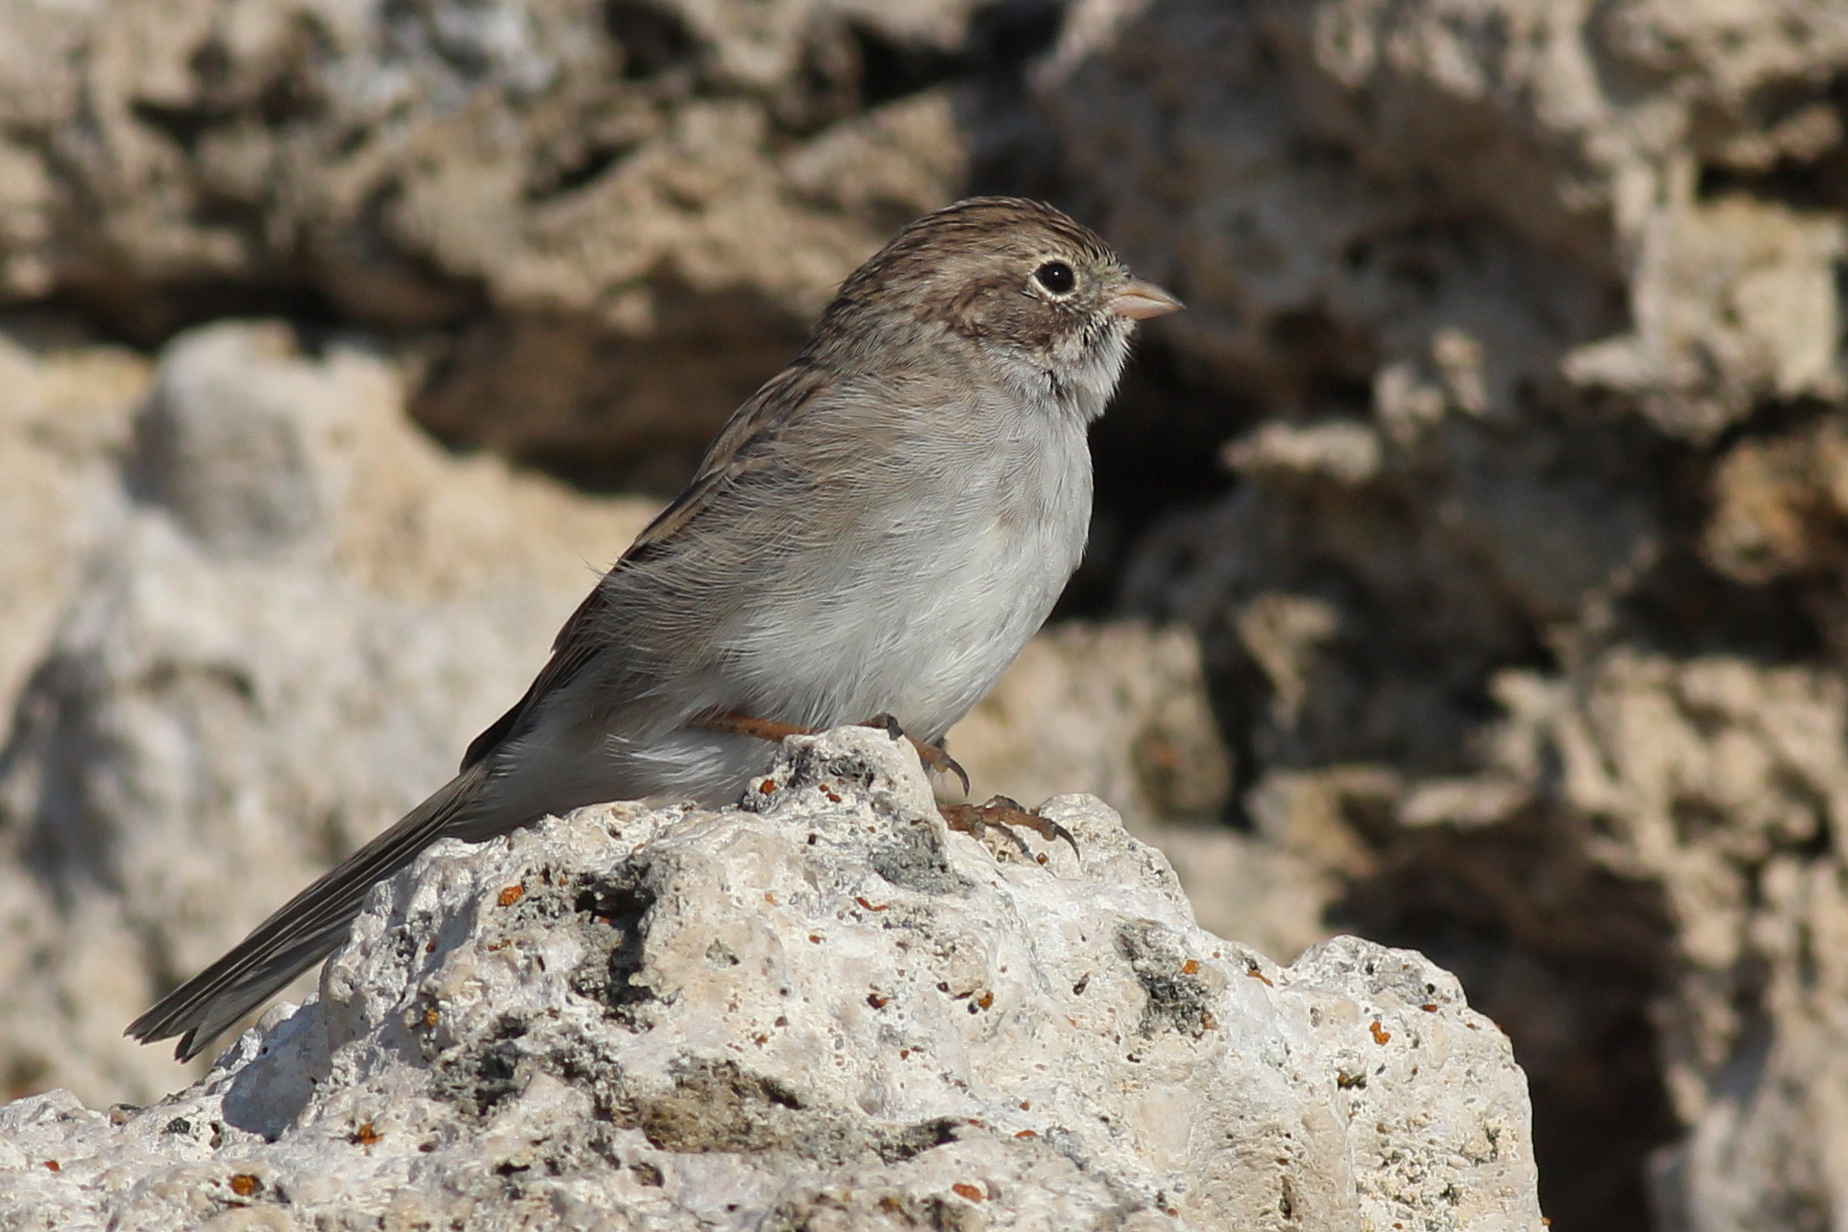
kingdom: Animalia
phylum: Chordata
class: Aves
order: Passeriformes
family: Passerellidae
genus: Spizella
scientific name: Spizella breweri
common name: Brewer's sparrow
